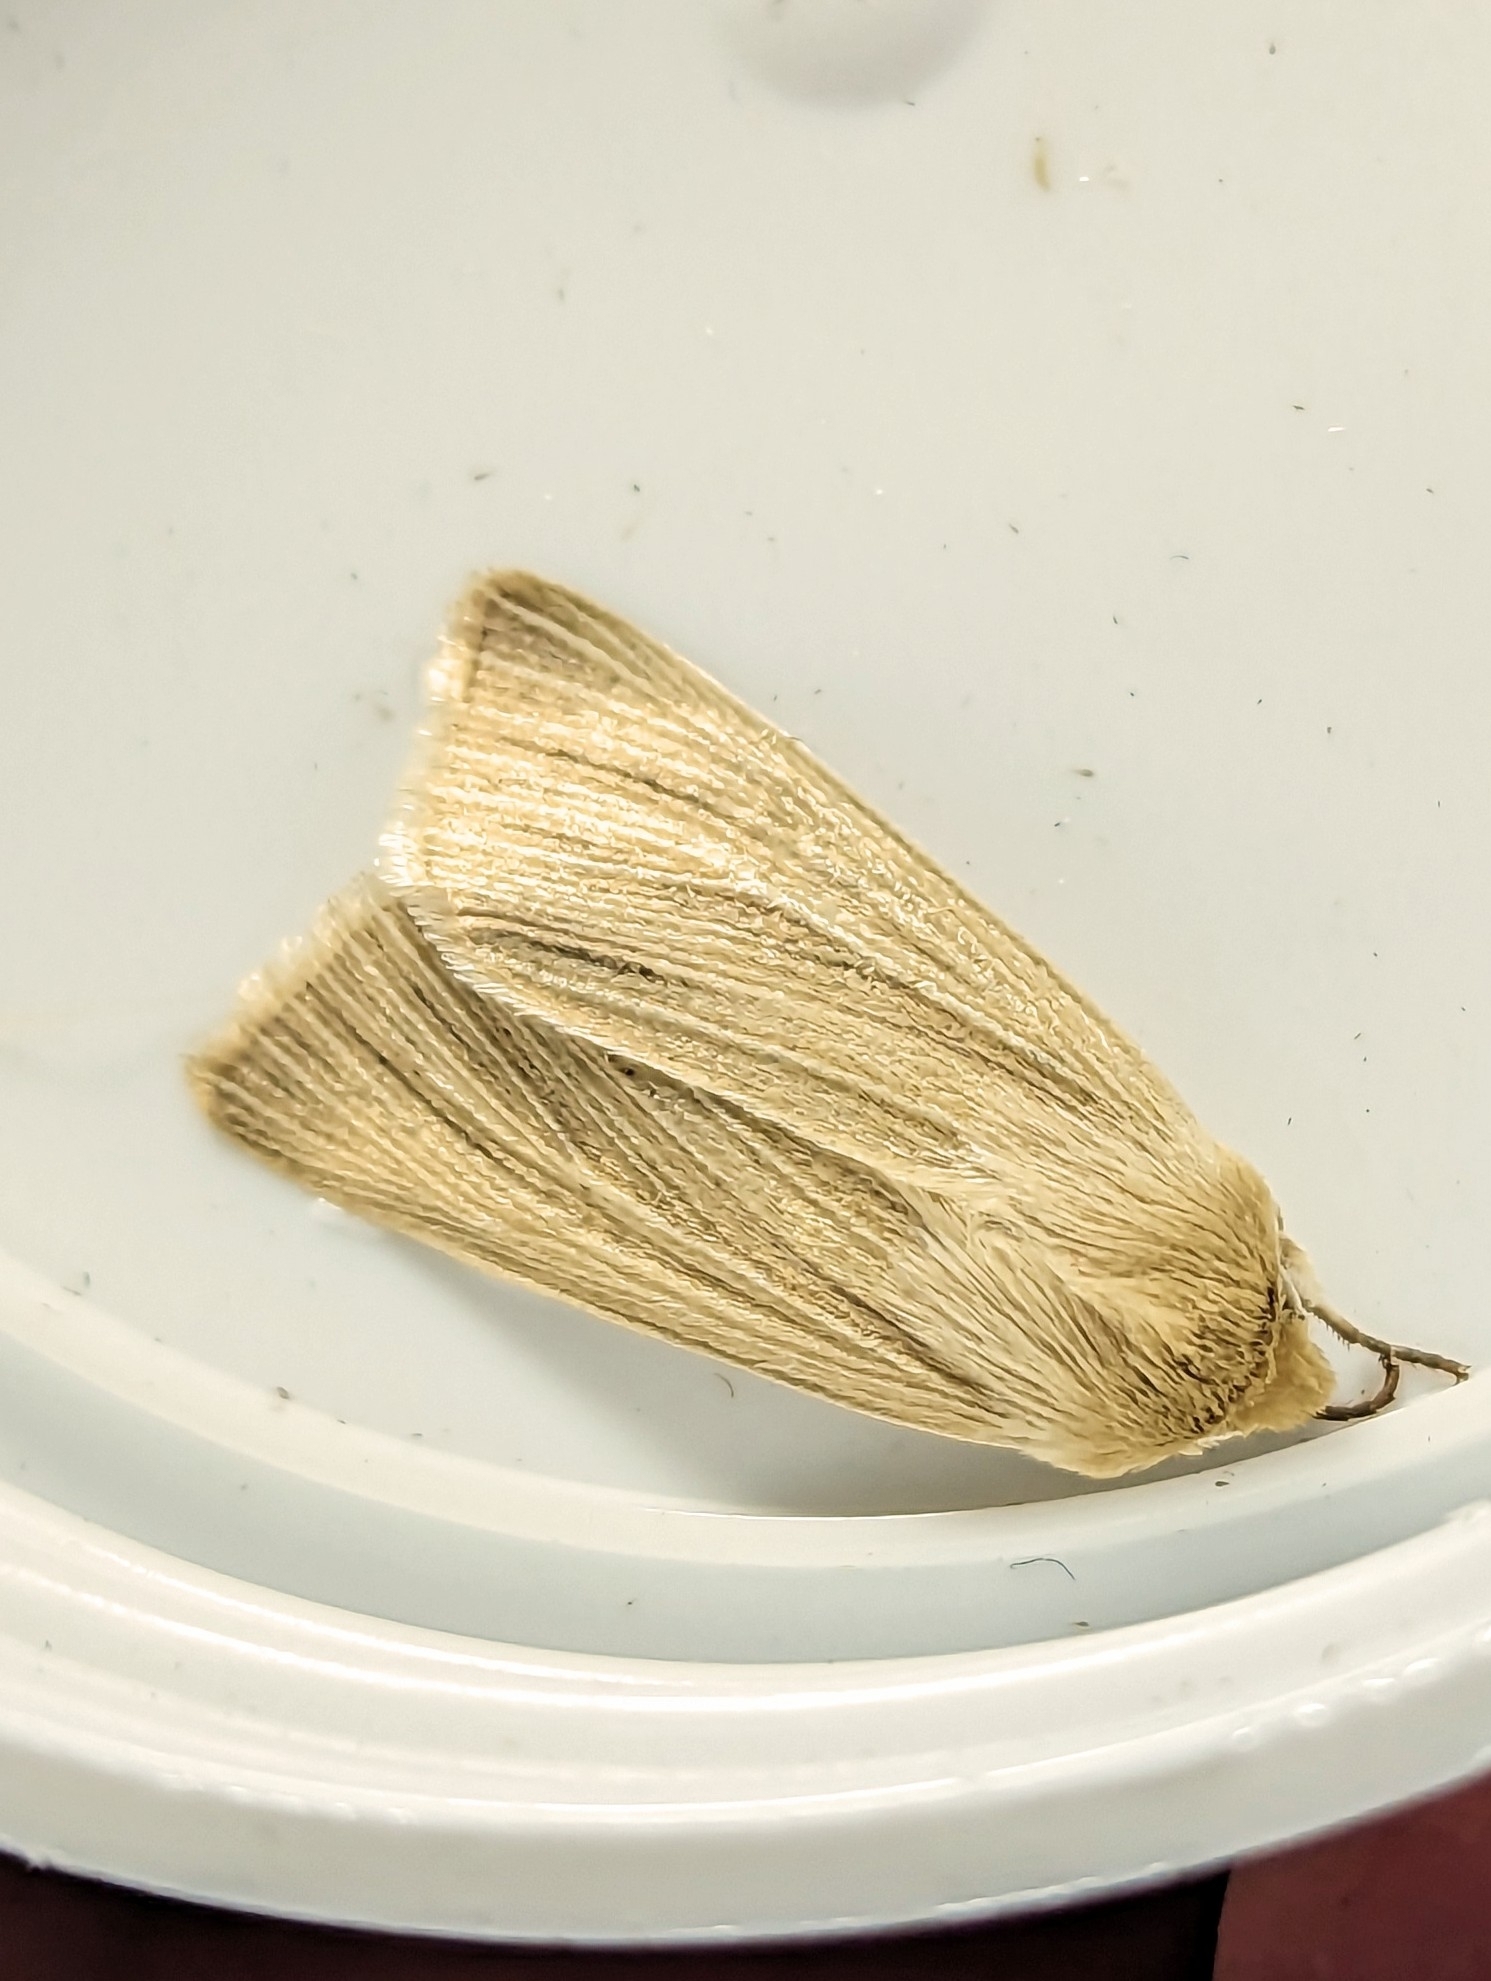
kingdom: Animalia
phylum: Arthropoda
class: Insecta
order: Lepidoptera
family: Noctuidae
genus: Mythimna
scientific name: Mythimna pallens
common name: Common wainscot
